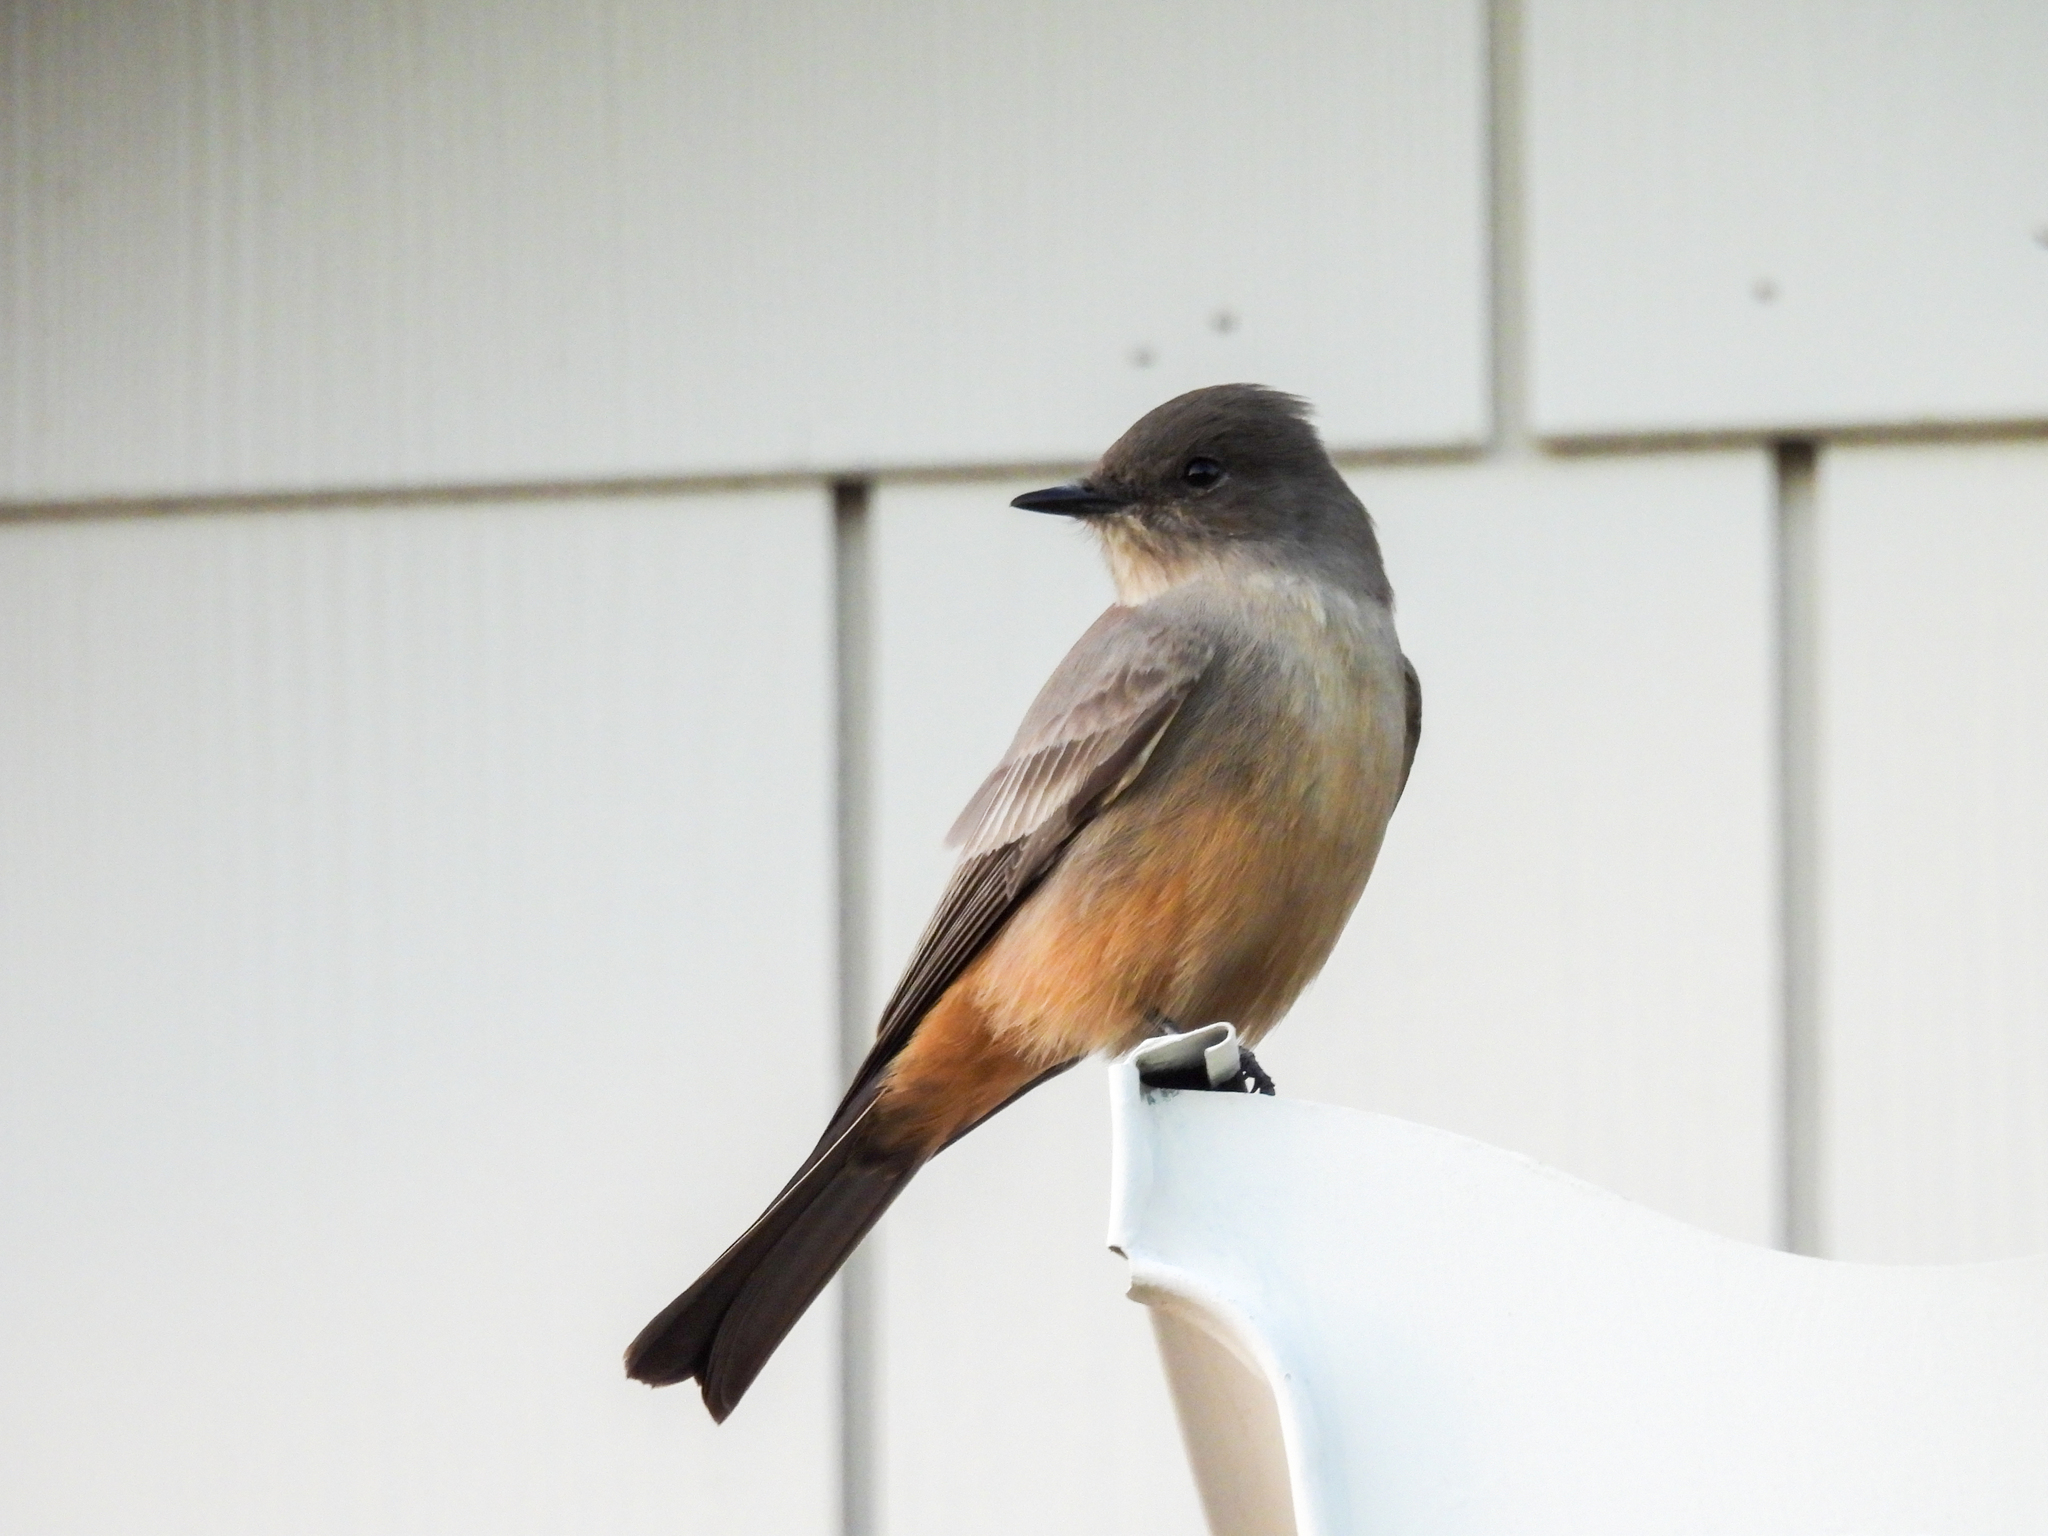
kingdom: Animalia
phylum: Chordata
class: Aves
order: Passeriformes
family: Tyrannidae
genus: Sayornis
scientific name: Sayornis saya
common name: Say's phoebe
